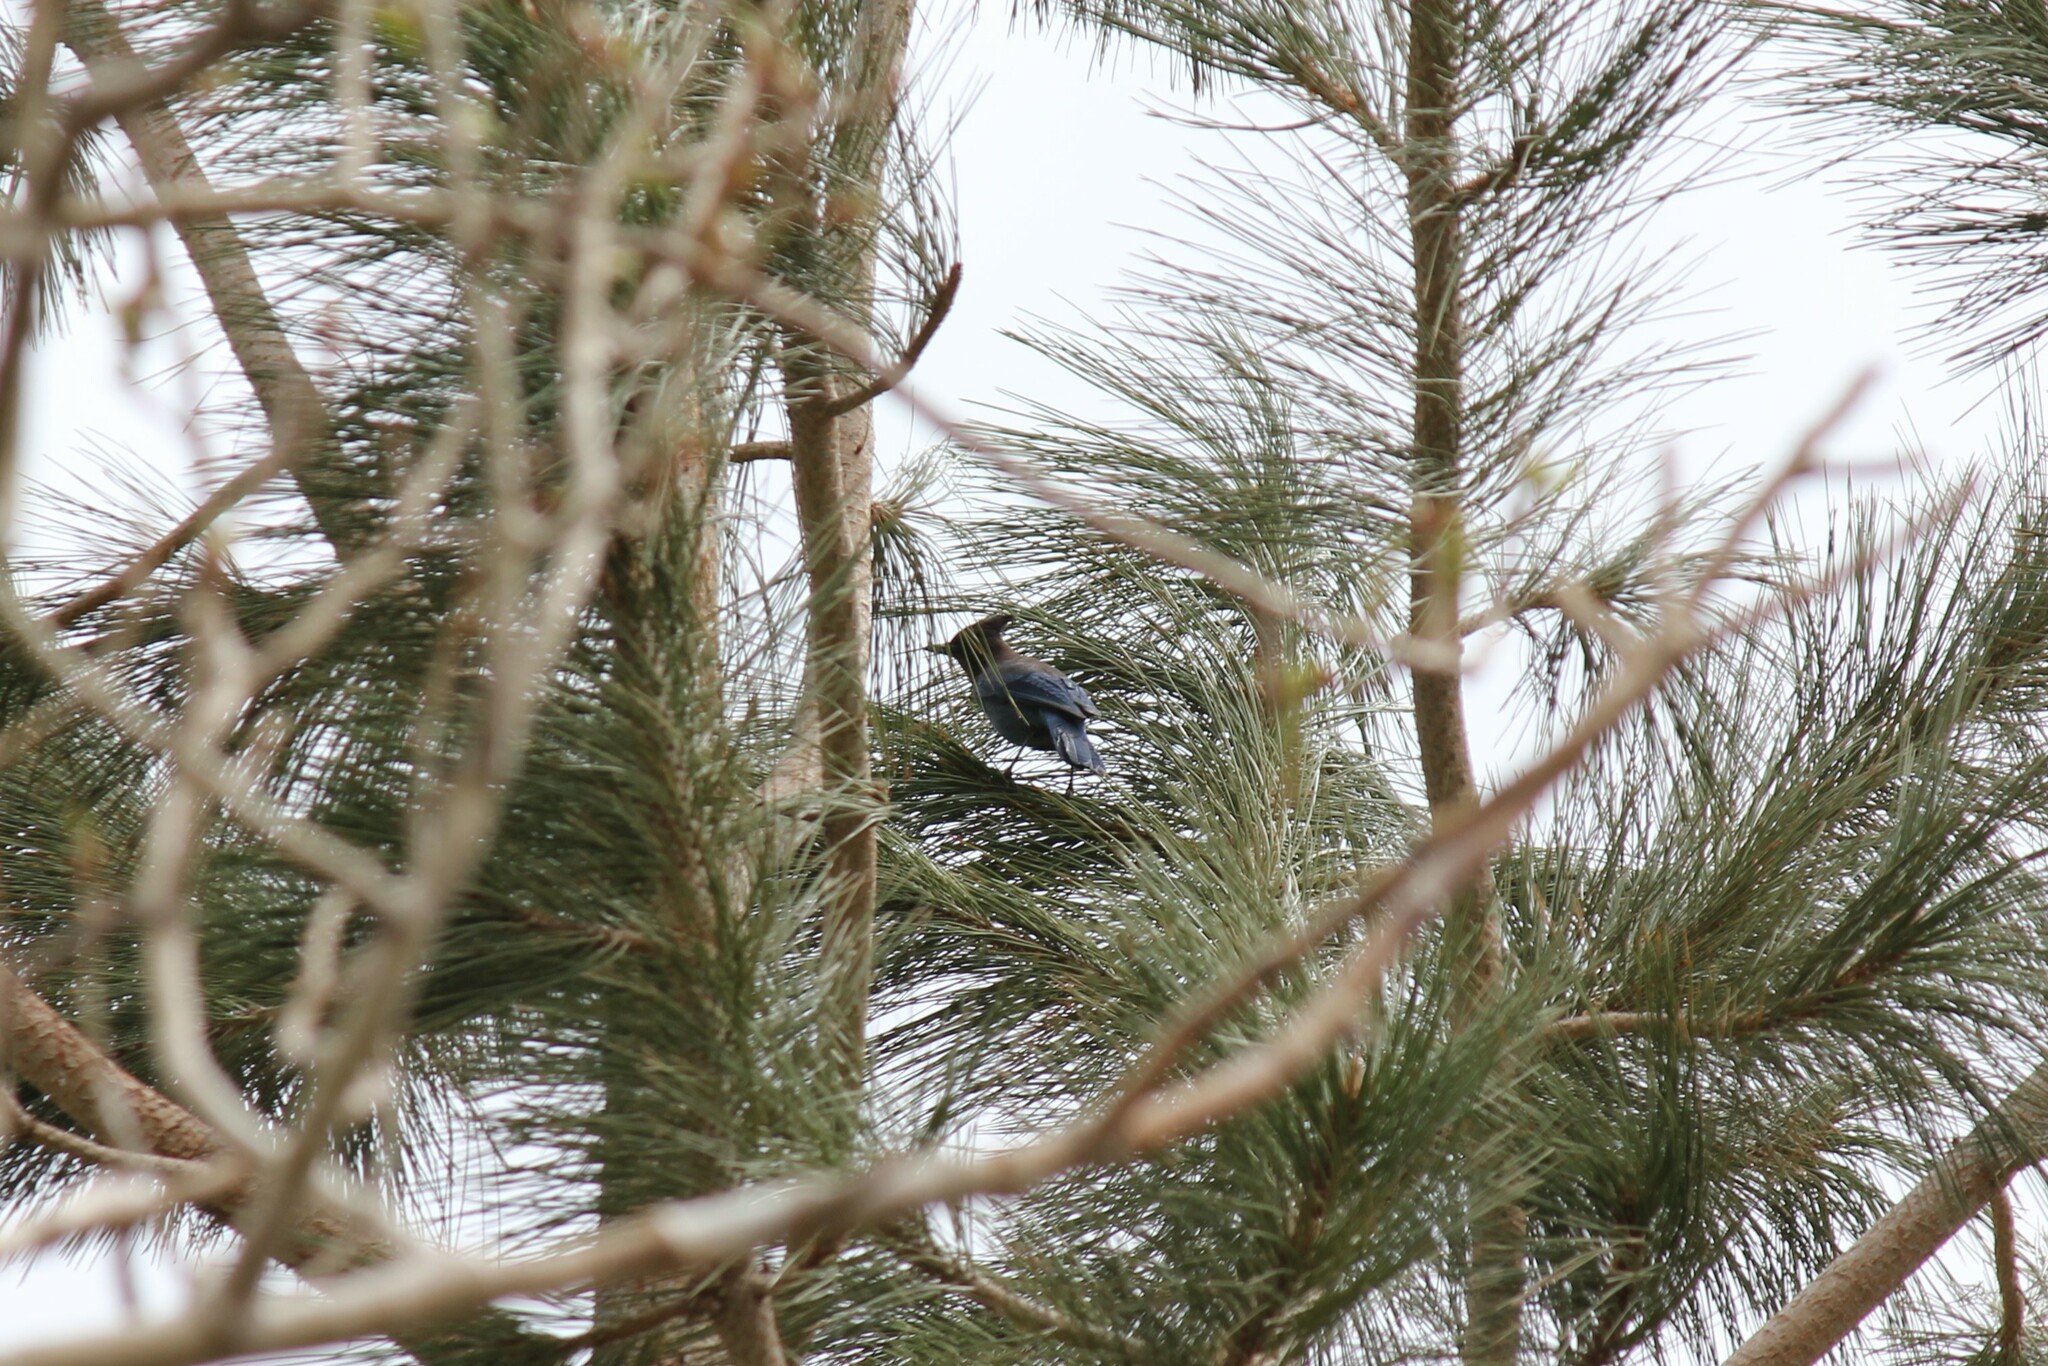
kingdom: Animalia
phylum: Chordata
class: Aves
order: Passeriformes
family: Corvidae
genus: Cyanocitta
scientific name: Cyanocitta stelleri
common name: Steller's jay
